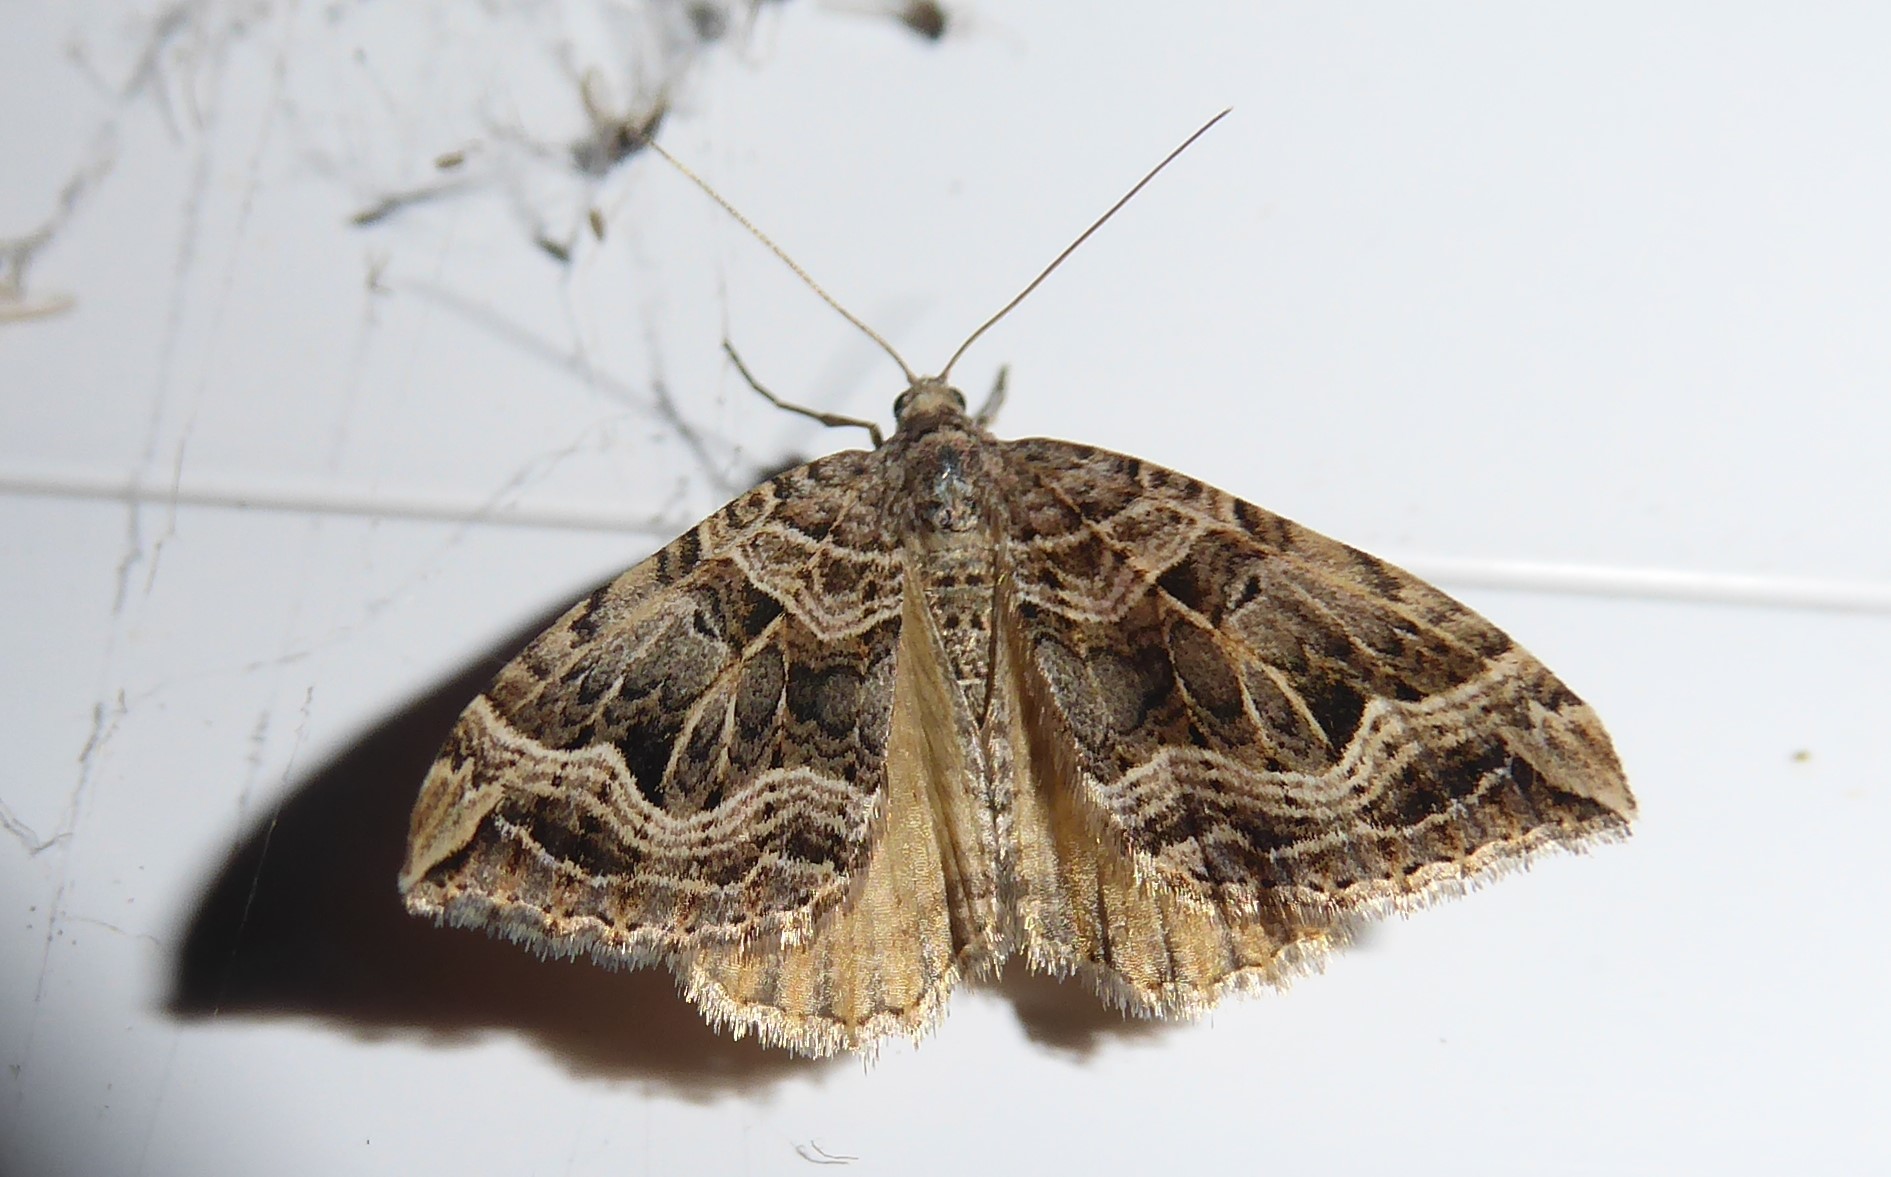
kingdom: Animalia
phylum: Arthropoda
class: Insecta
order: Lepidoptera
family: Geometridae
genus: Xanthorhoe
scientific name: Xanthorhoe semifissata
